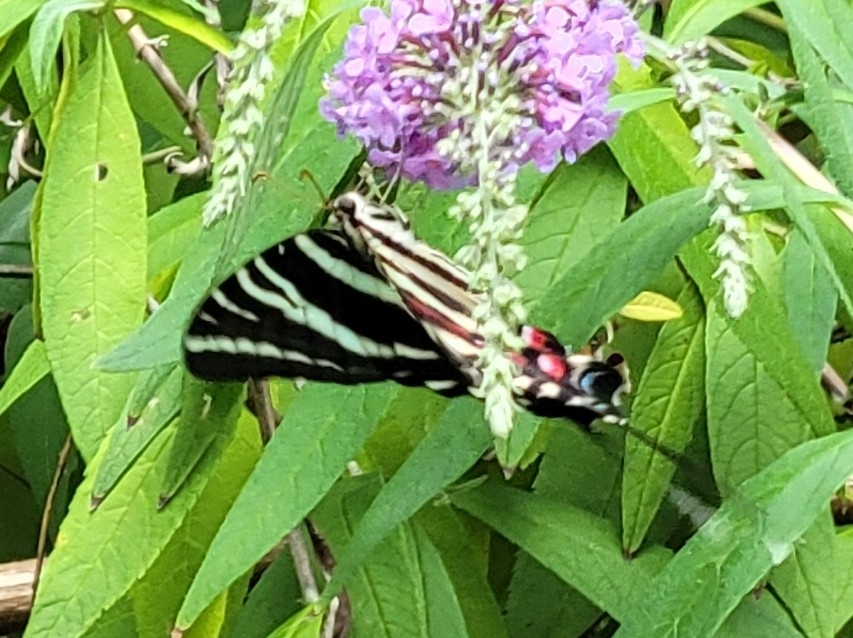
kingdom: Animalia
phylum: Arthropoda
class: Insecta
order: Lepidoptera
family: Papilionidae
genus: Protographium
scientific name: Protographium marcellus
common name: Zebra swallowtail
